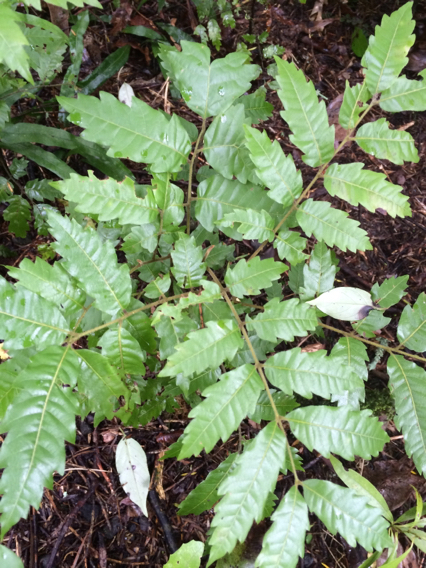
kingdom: Plantae
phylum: Tracheophyta
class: Magnoliopsida
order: Sapindales
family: Sapindaceae
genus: Alectryon
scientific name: Alectryon excelsus
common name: Three kings titoki
